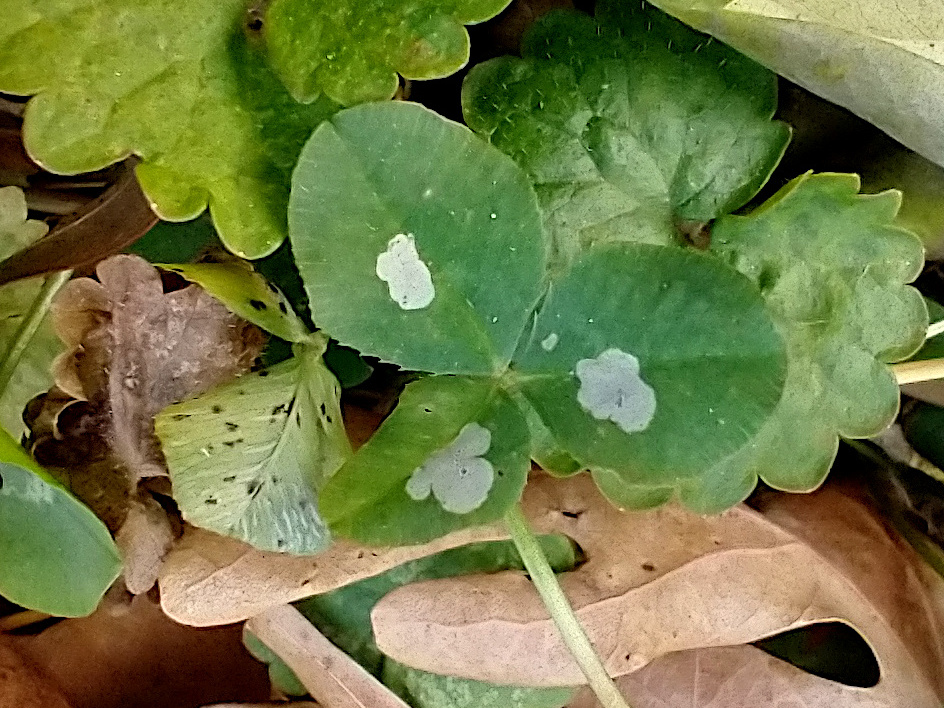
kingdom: Animalia
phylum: Arthropoda
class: Insecta
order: Lepidoptera
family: Gracillariidae
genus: Porphyrosela
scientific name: Porphyrosela minuta
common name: Leaf miner moth
